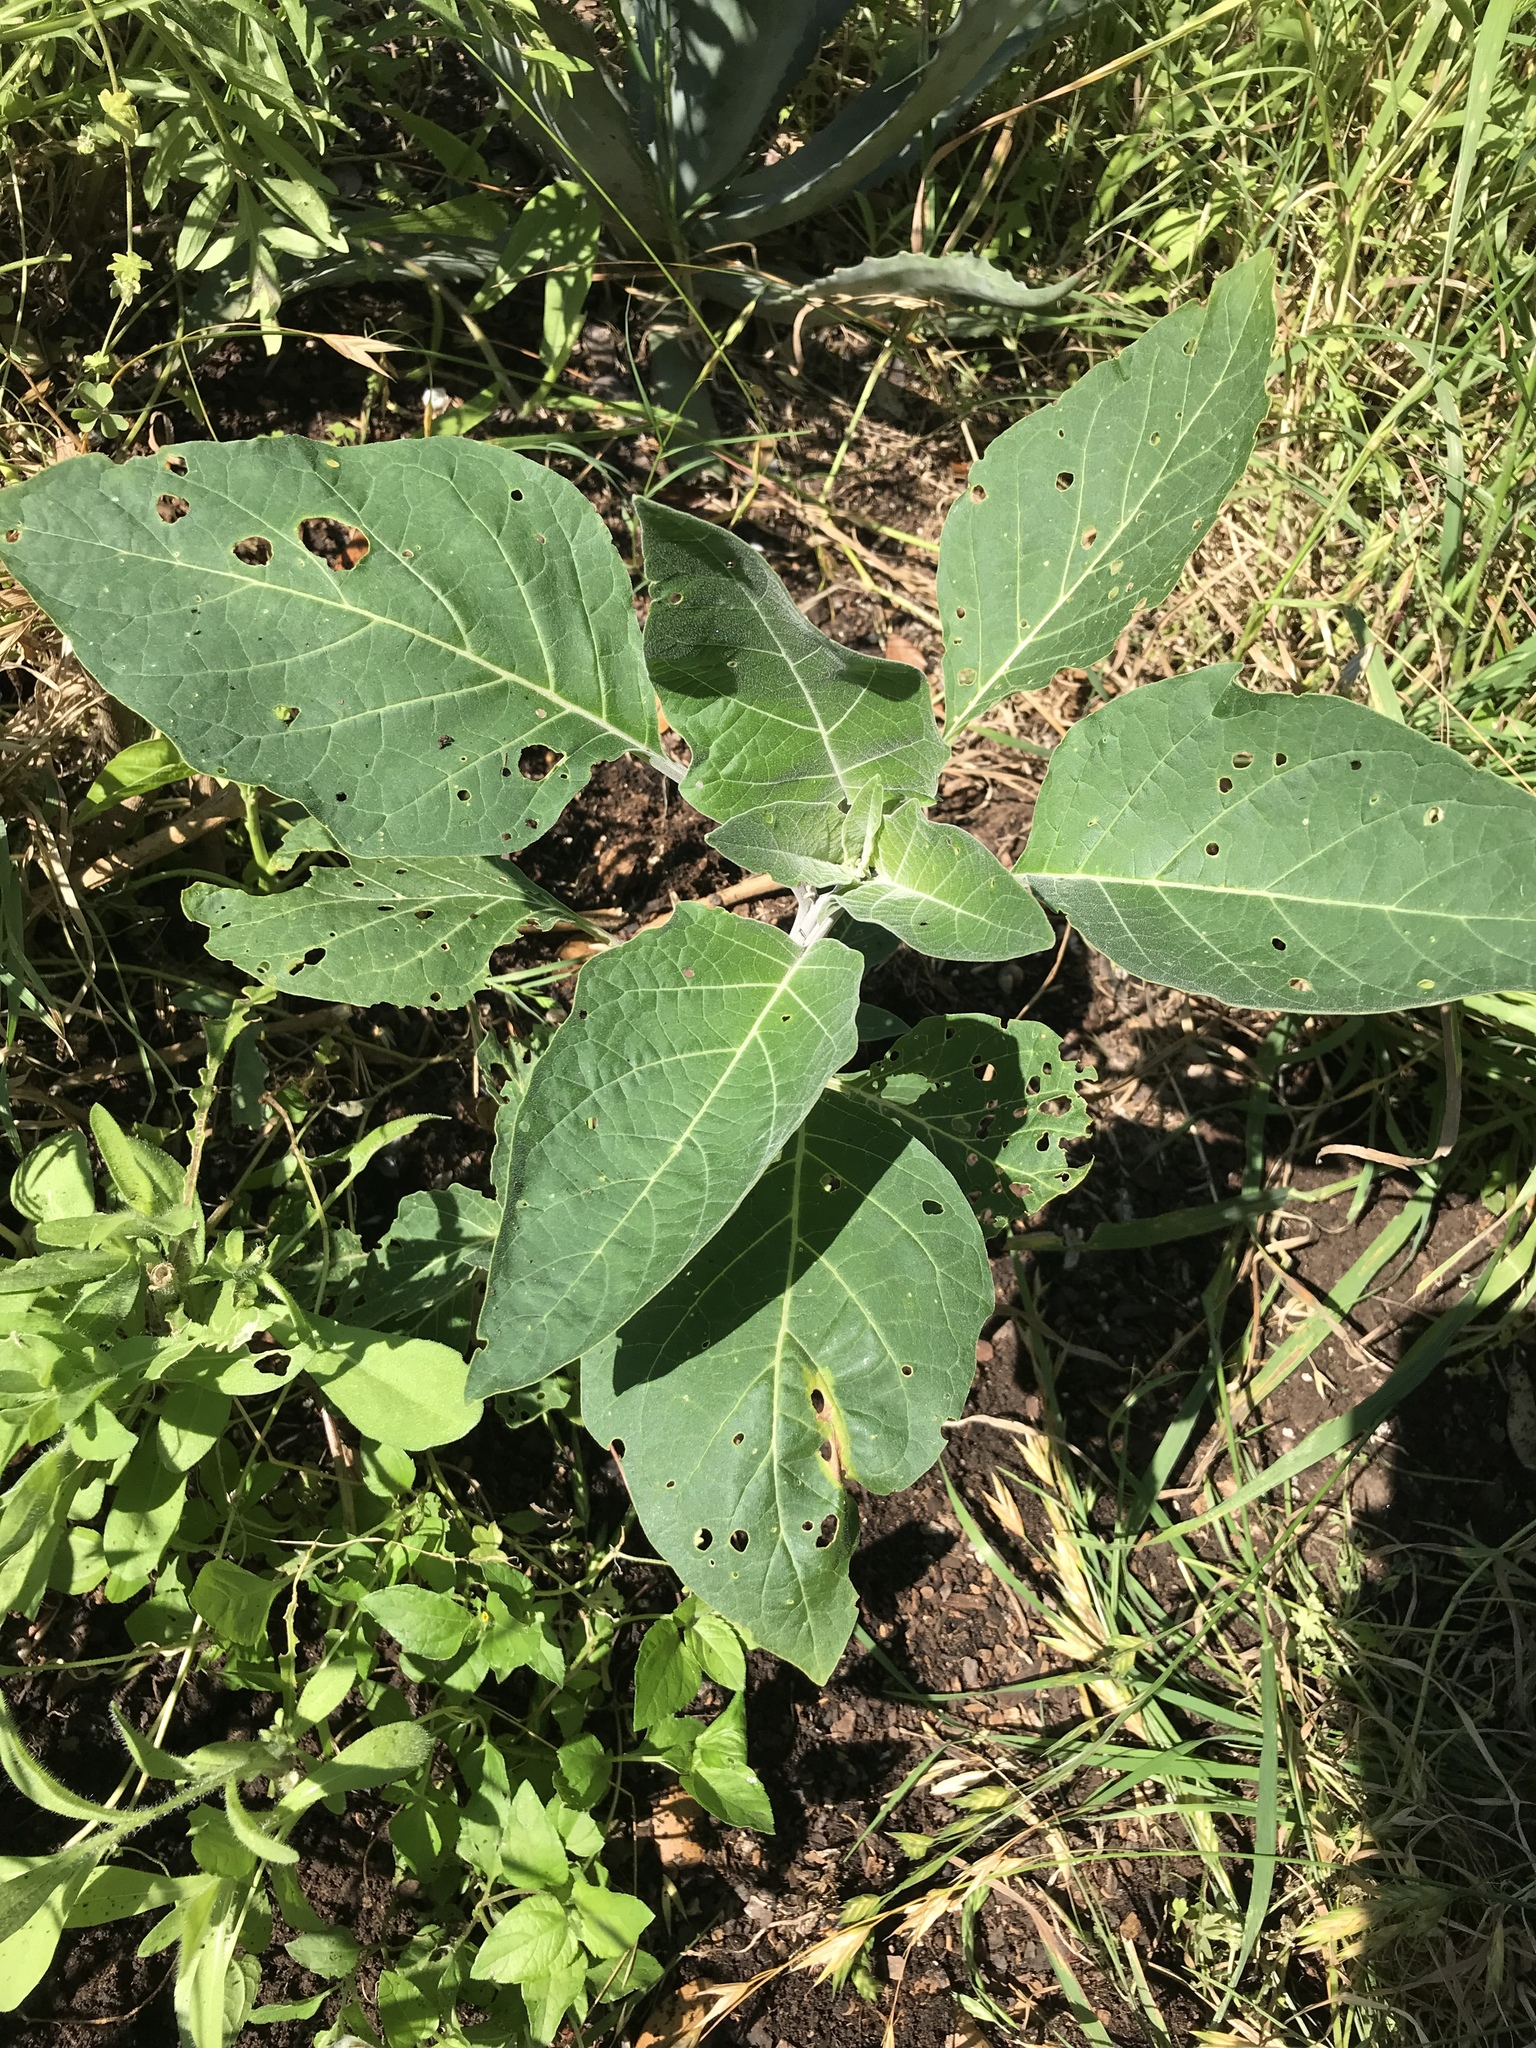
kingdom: Plantae
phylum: Tracheophyta
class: Magnoliopsida
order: Solanales
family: Solanaceae
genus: Datura
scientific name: Datura wrightii
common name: Sacred thorn-apple
